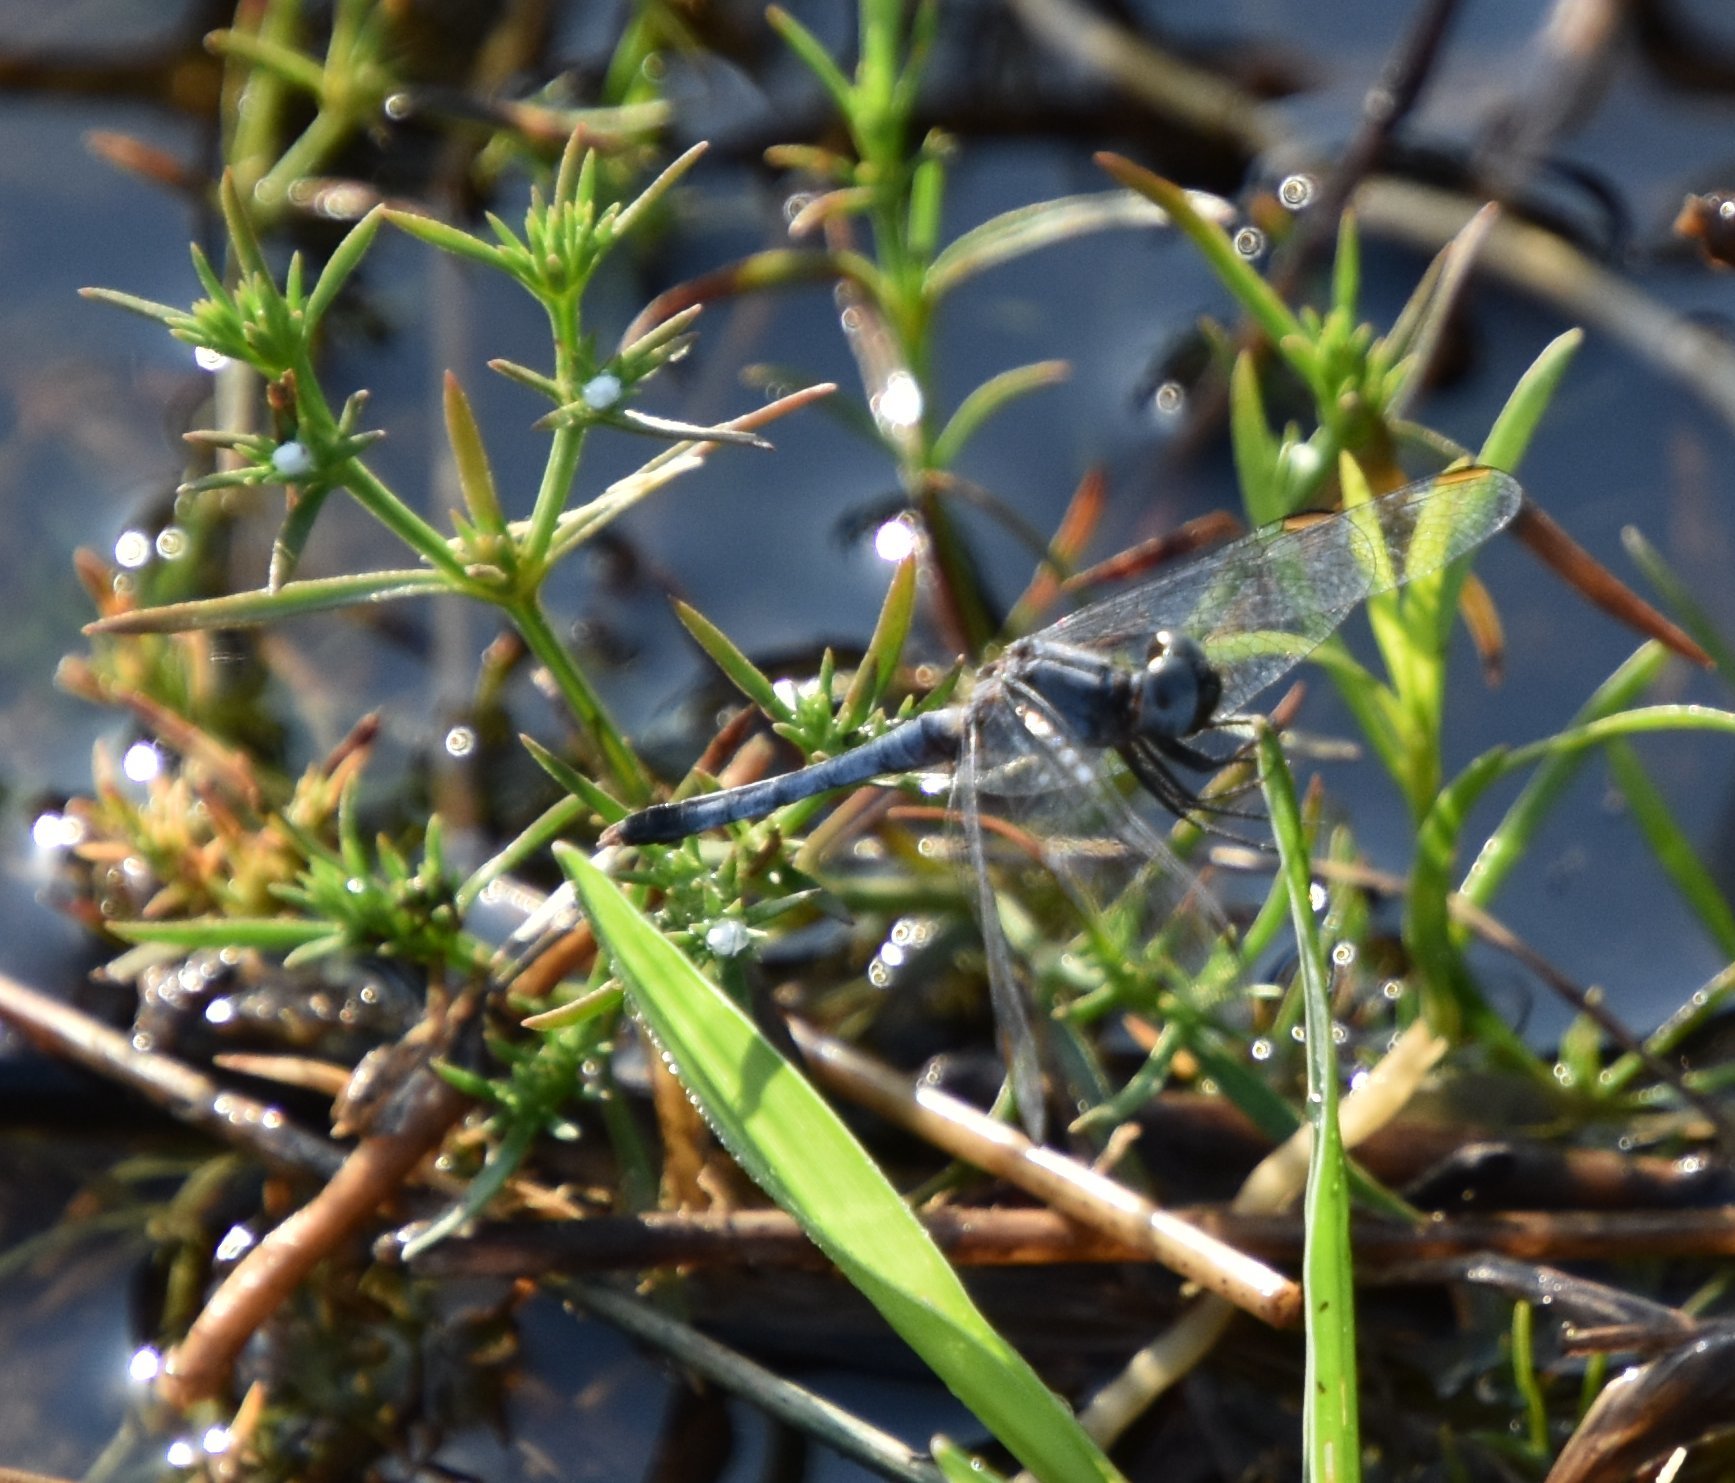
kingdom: Animalia
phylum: Arthropoda
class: Insecta
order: Odonata
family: Libellulidae
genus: Erythrodiplax
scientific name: Erythrodiplax minuscula
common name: Little blue dragonlet
